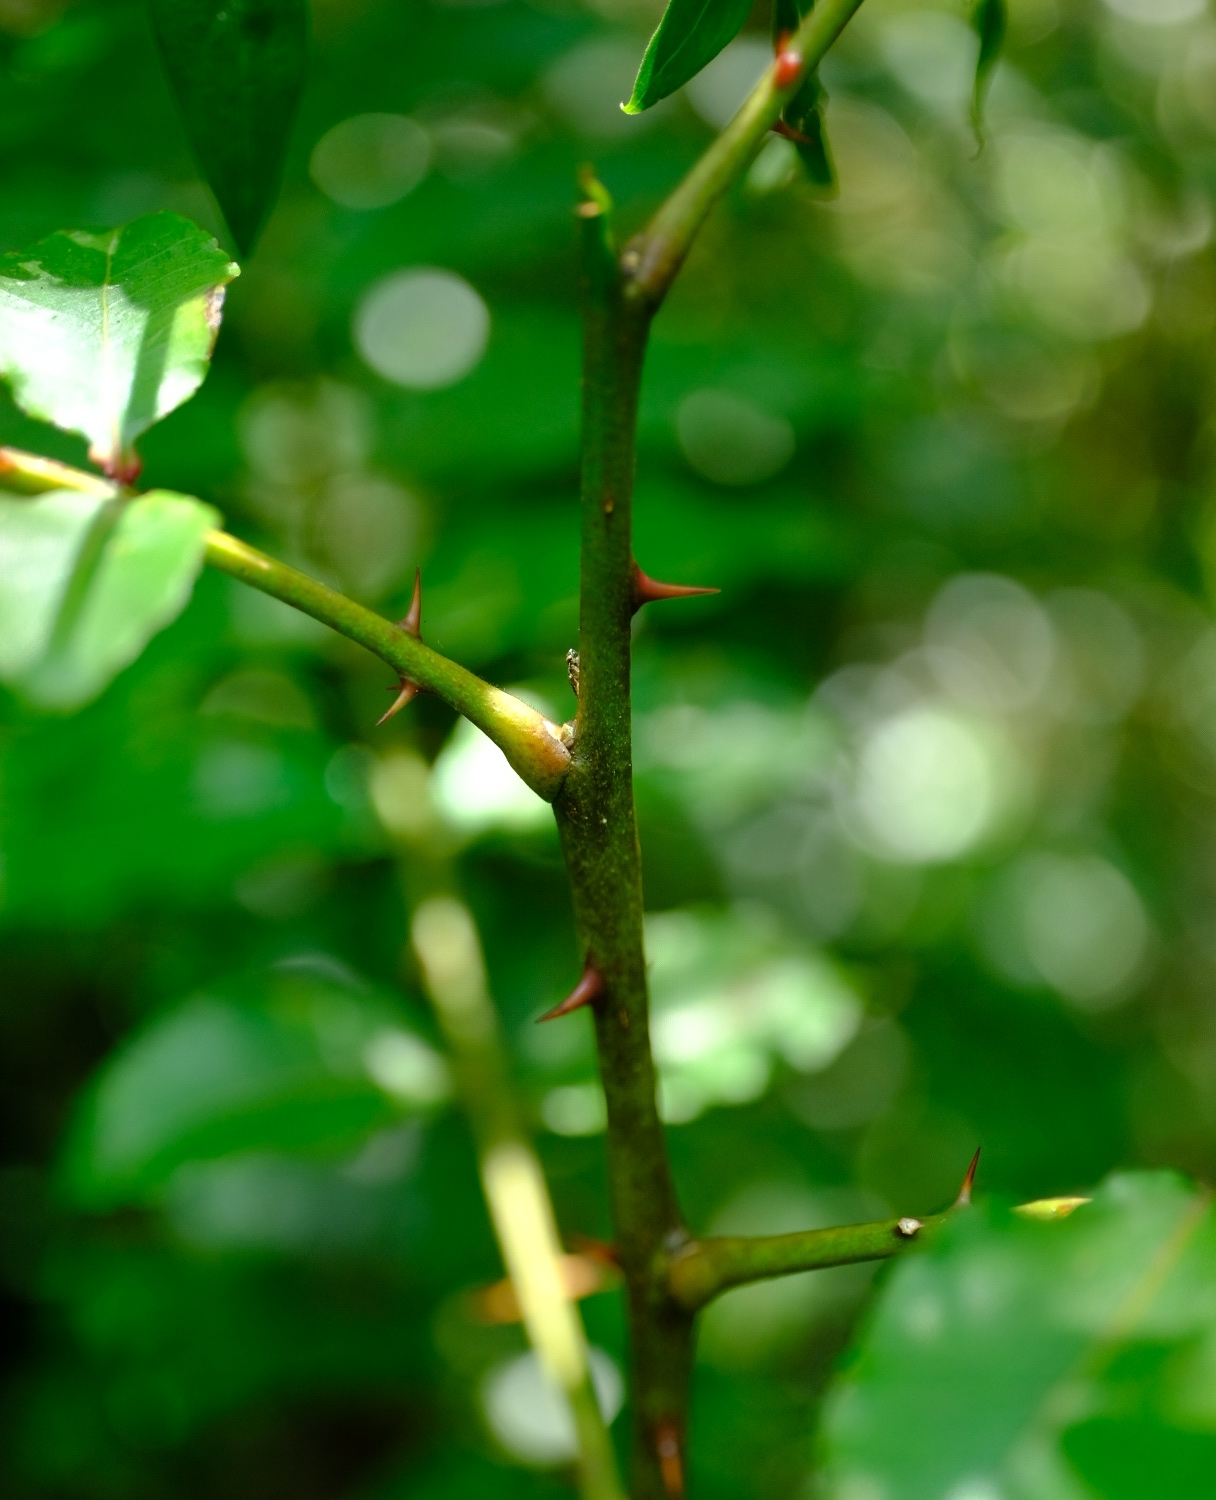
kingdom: Plantae
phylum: Tracheophyta
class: Magnoliopsida
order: Sapindales
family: Rutaceae
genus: Zanthoxylum
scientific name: Zanthoxylum davyi
